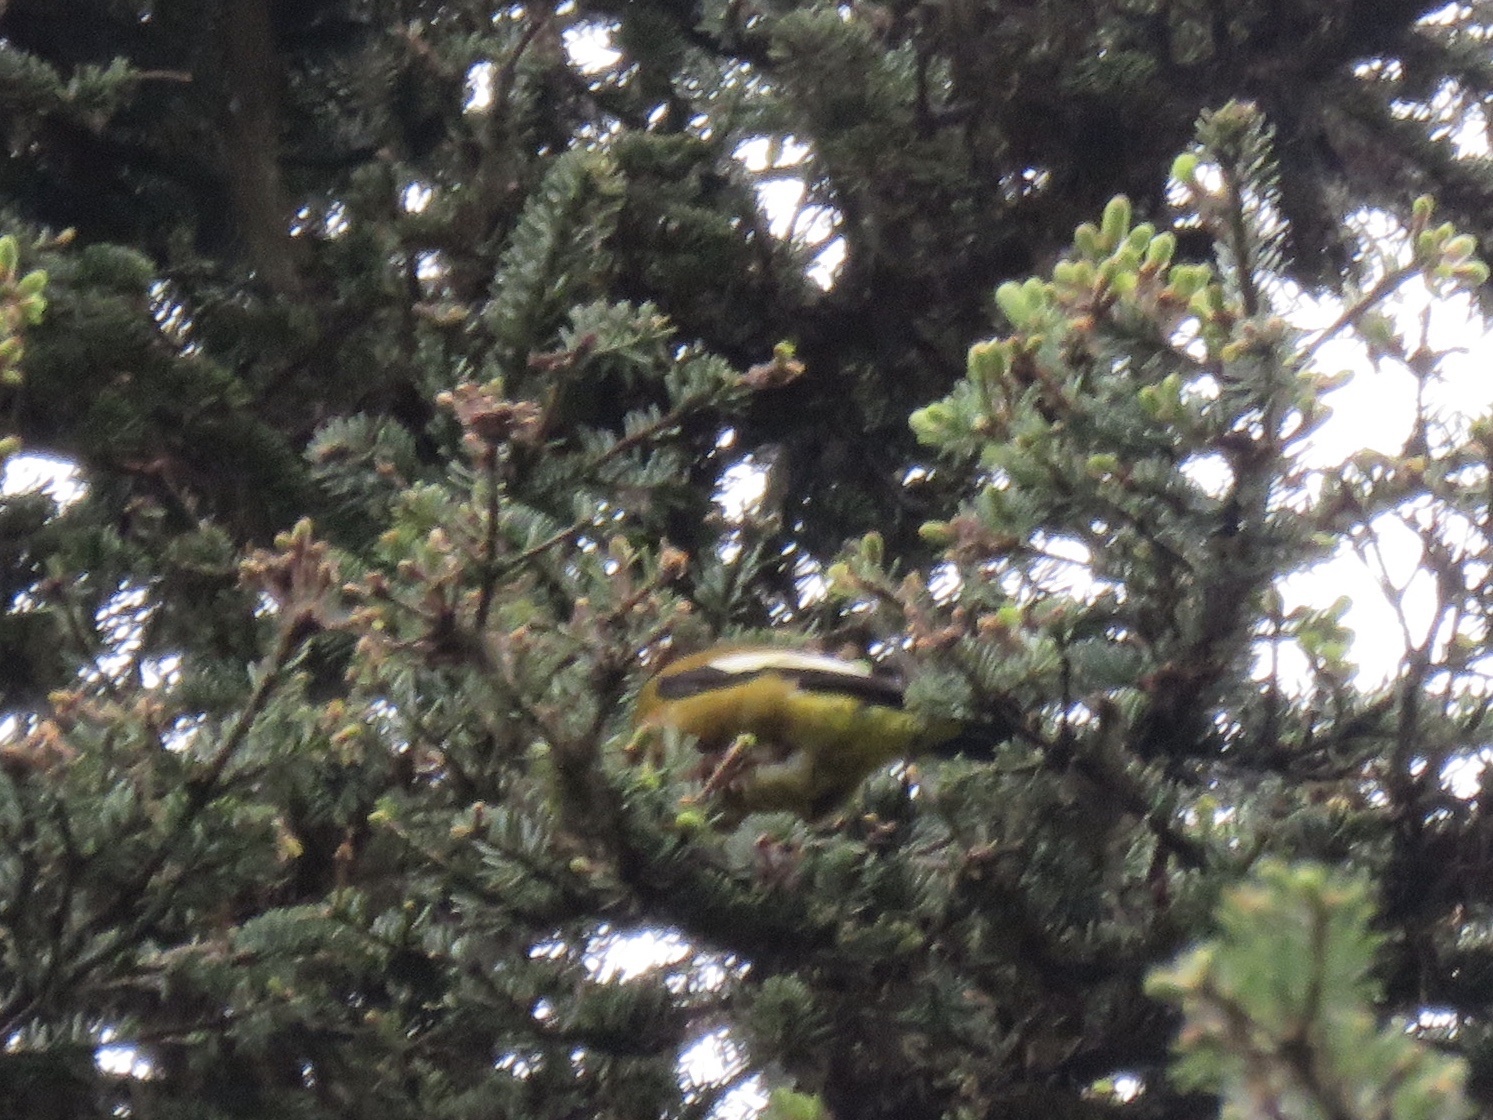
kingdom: Animalia
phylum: Chordata
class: Aves
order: Passeriformes
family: Fringillidae
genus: Hesperiphona
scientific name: Hesperiphona vespertina
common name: Evening grosbeak
